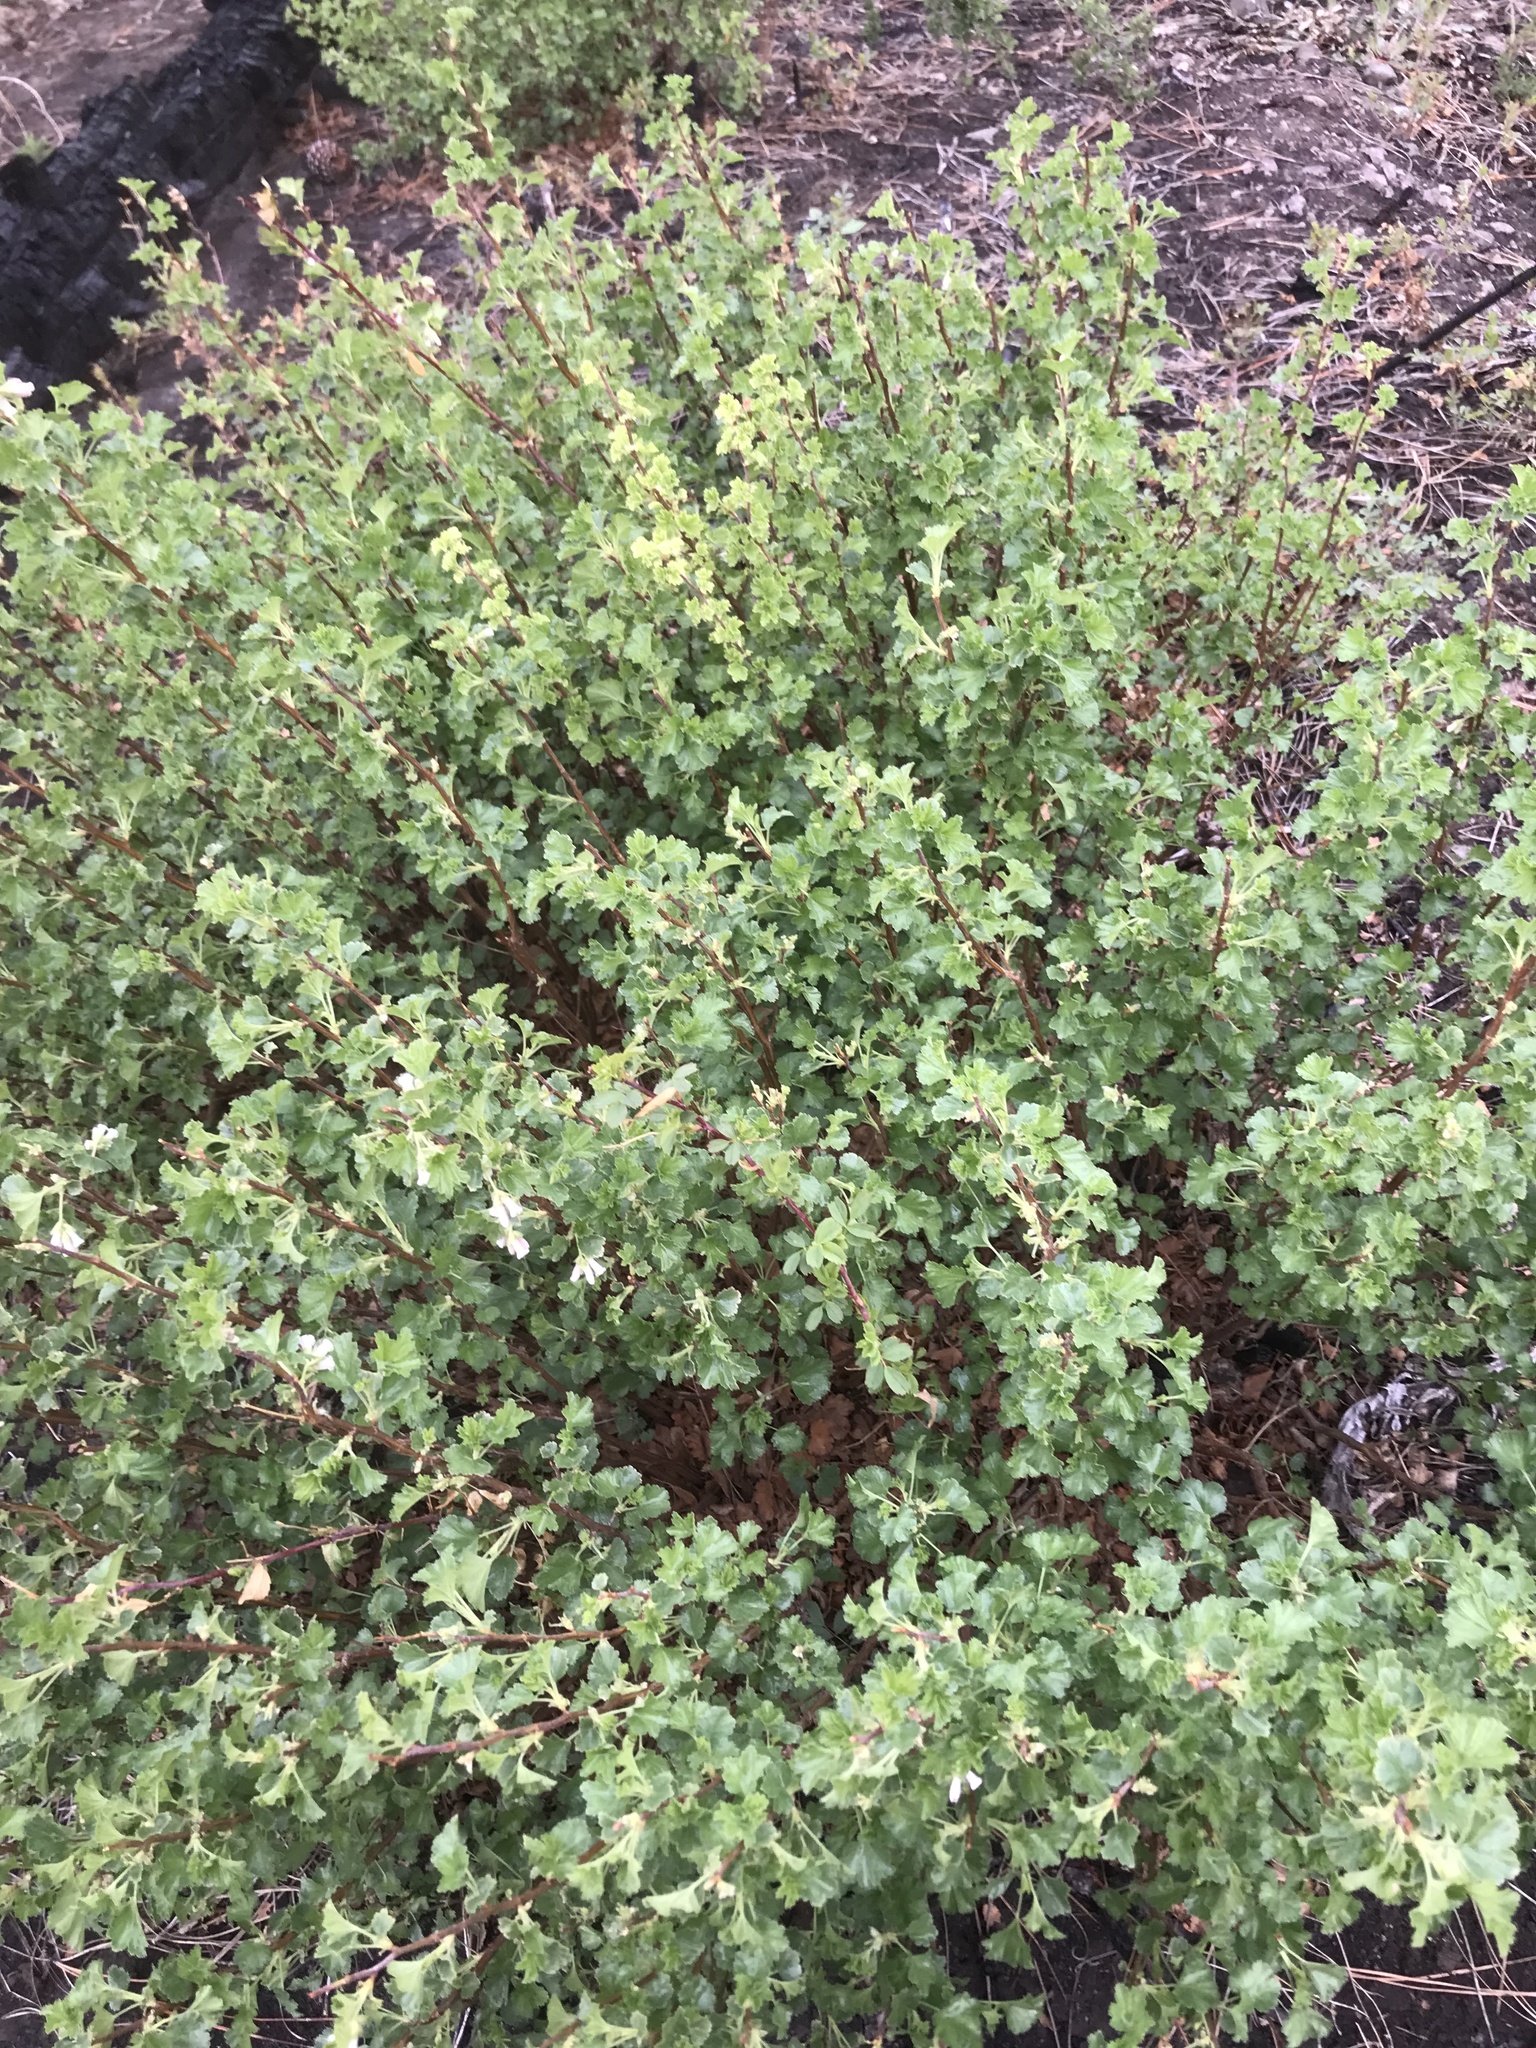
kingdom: Plantae
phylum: Tracheophyta
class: Magnoliopsida
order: Saxifragales
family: Grossulariaceae
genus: Ribes
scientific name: Ribes cereum
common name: Wax currant
